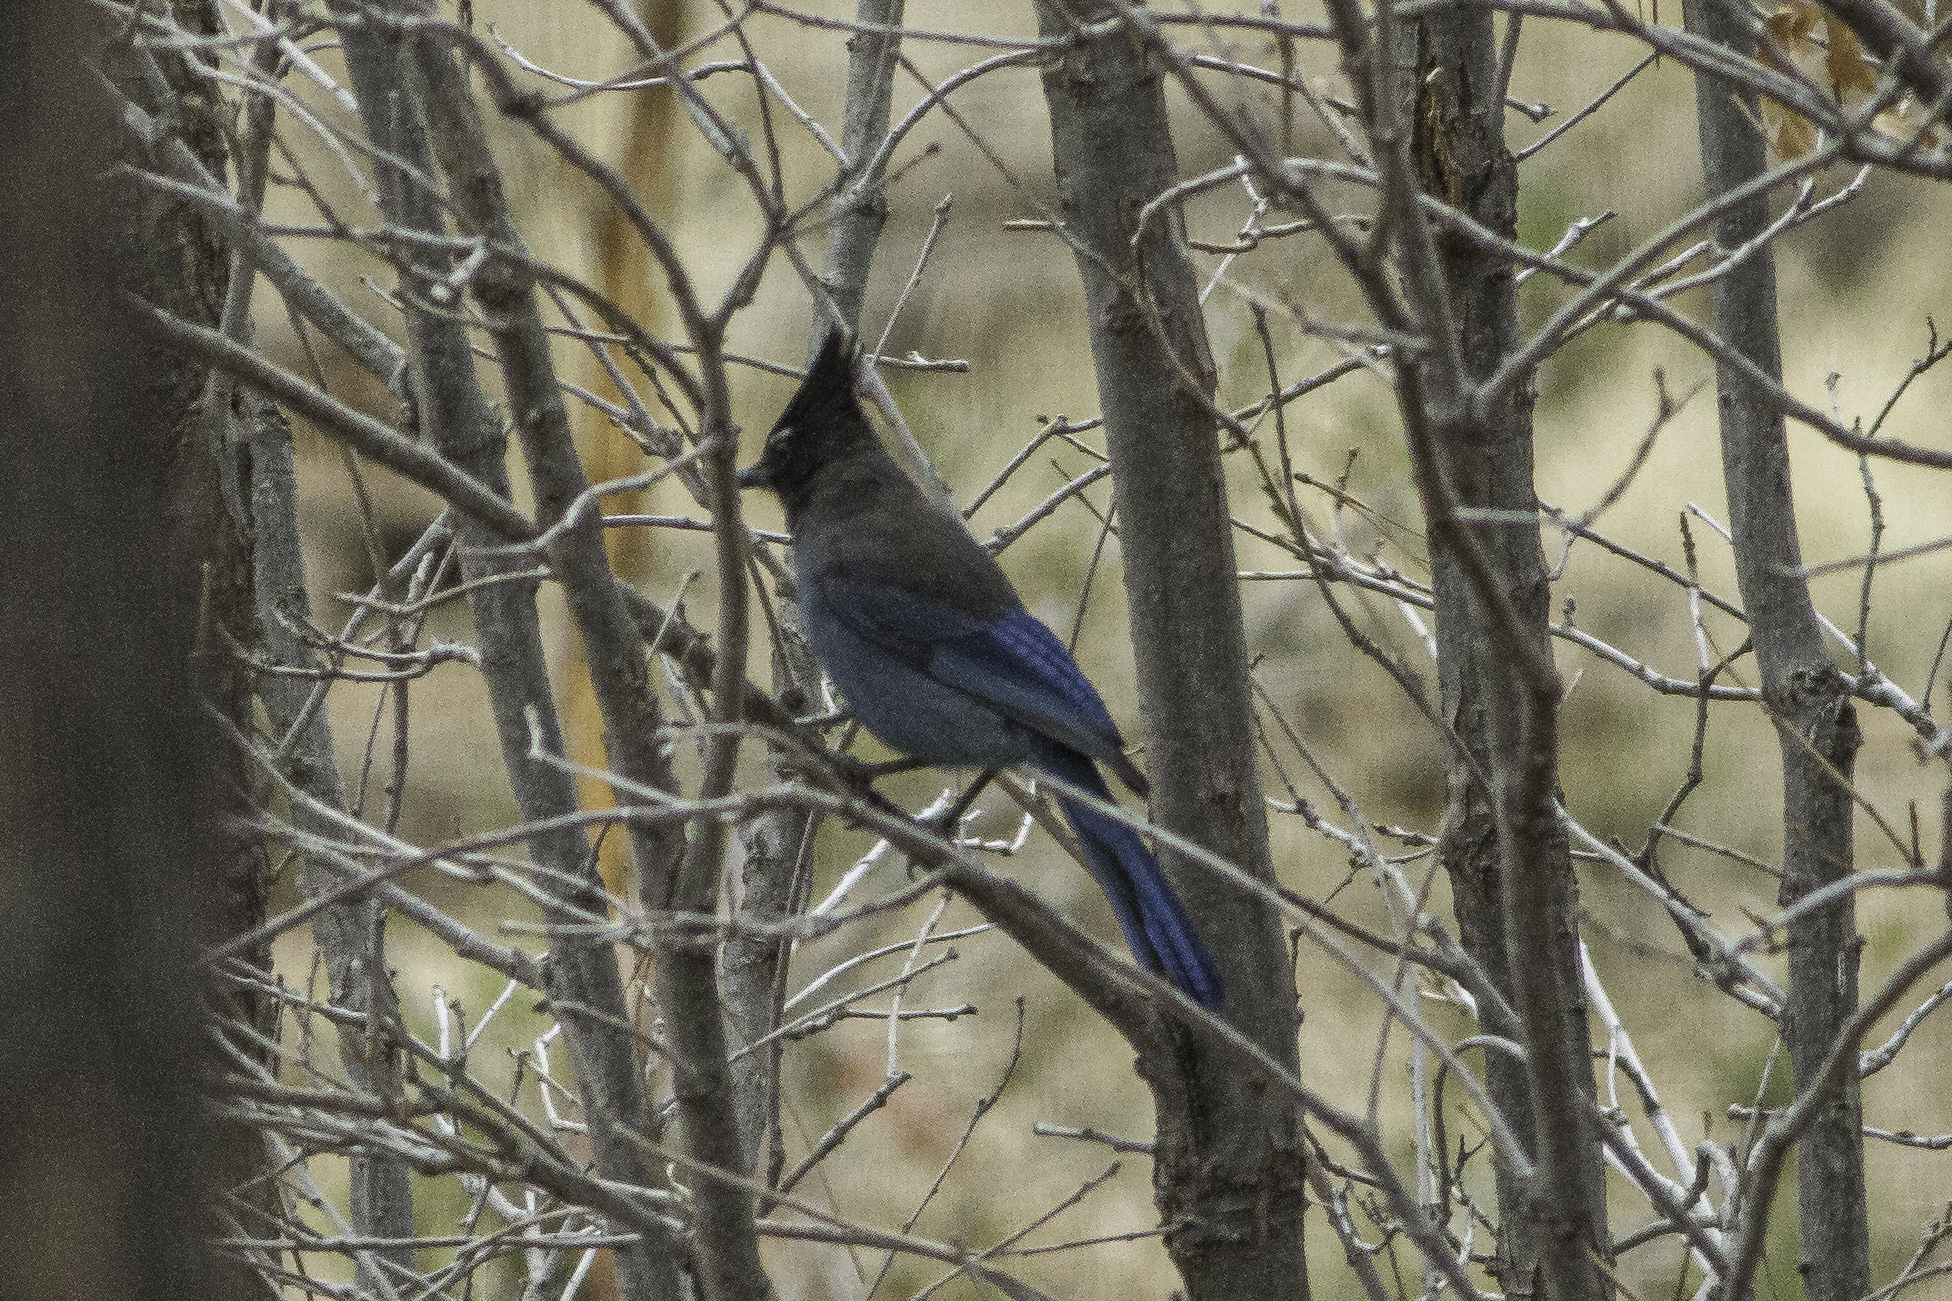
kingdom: Animalia
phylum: Chordata
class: Aves
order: Passeriformes
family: Corvidae
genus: Cyanocitta
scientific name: Cyanocitta stelleri
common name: Steller's jay
